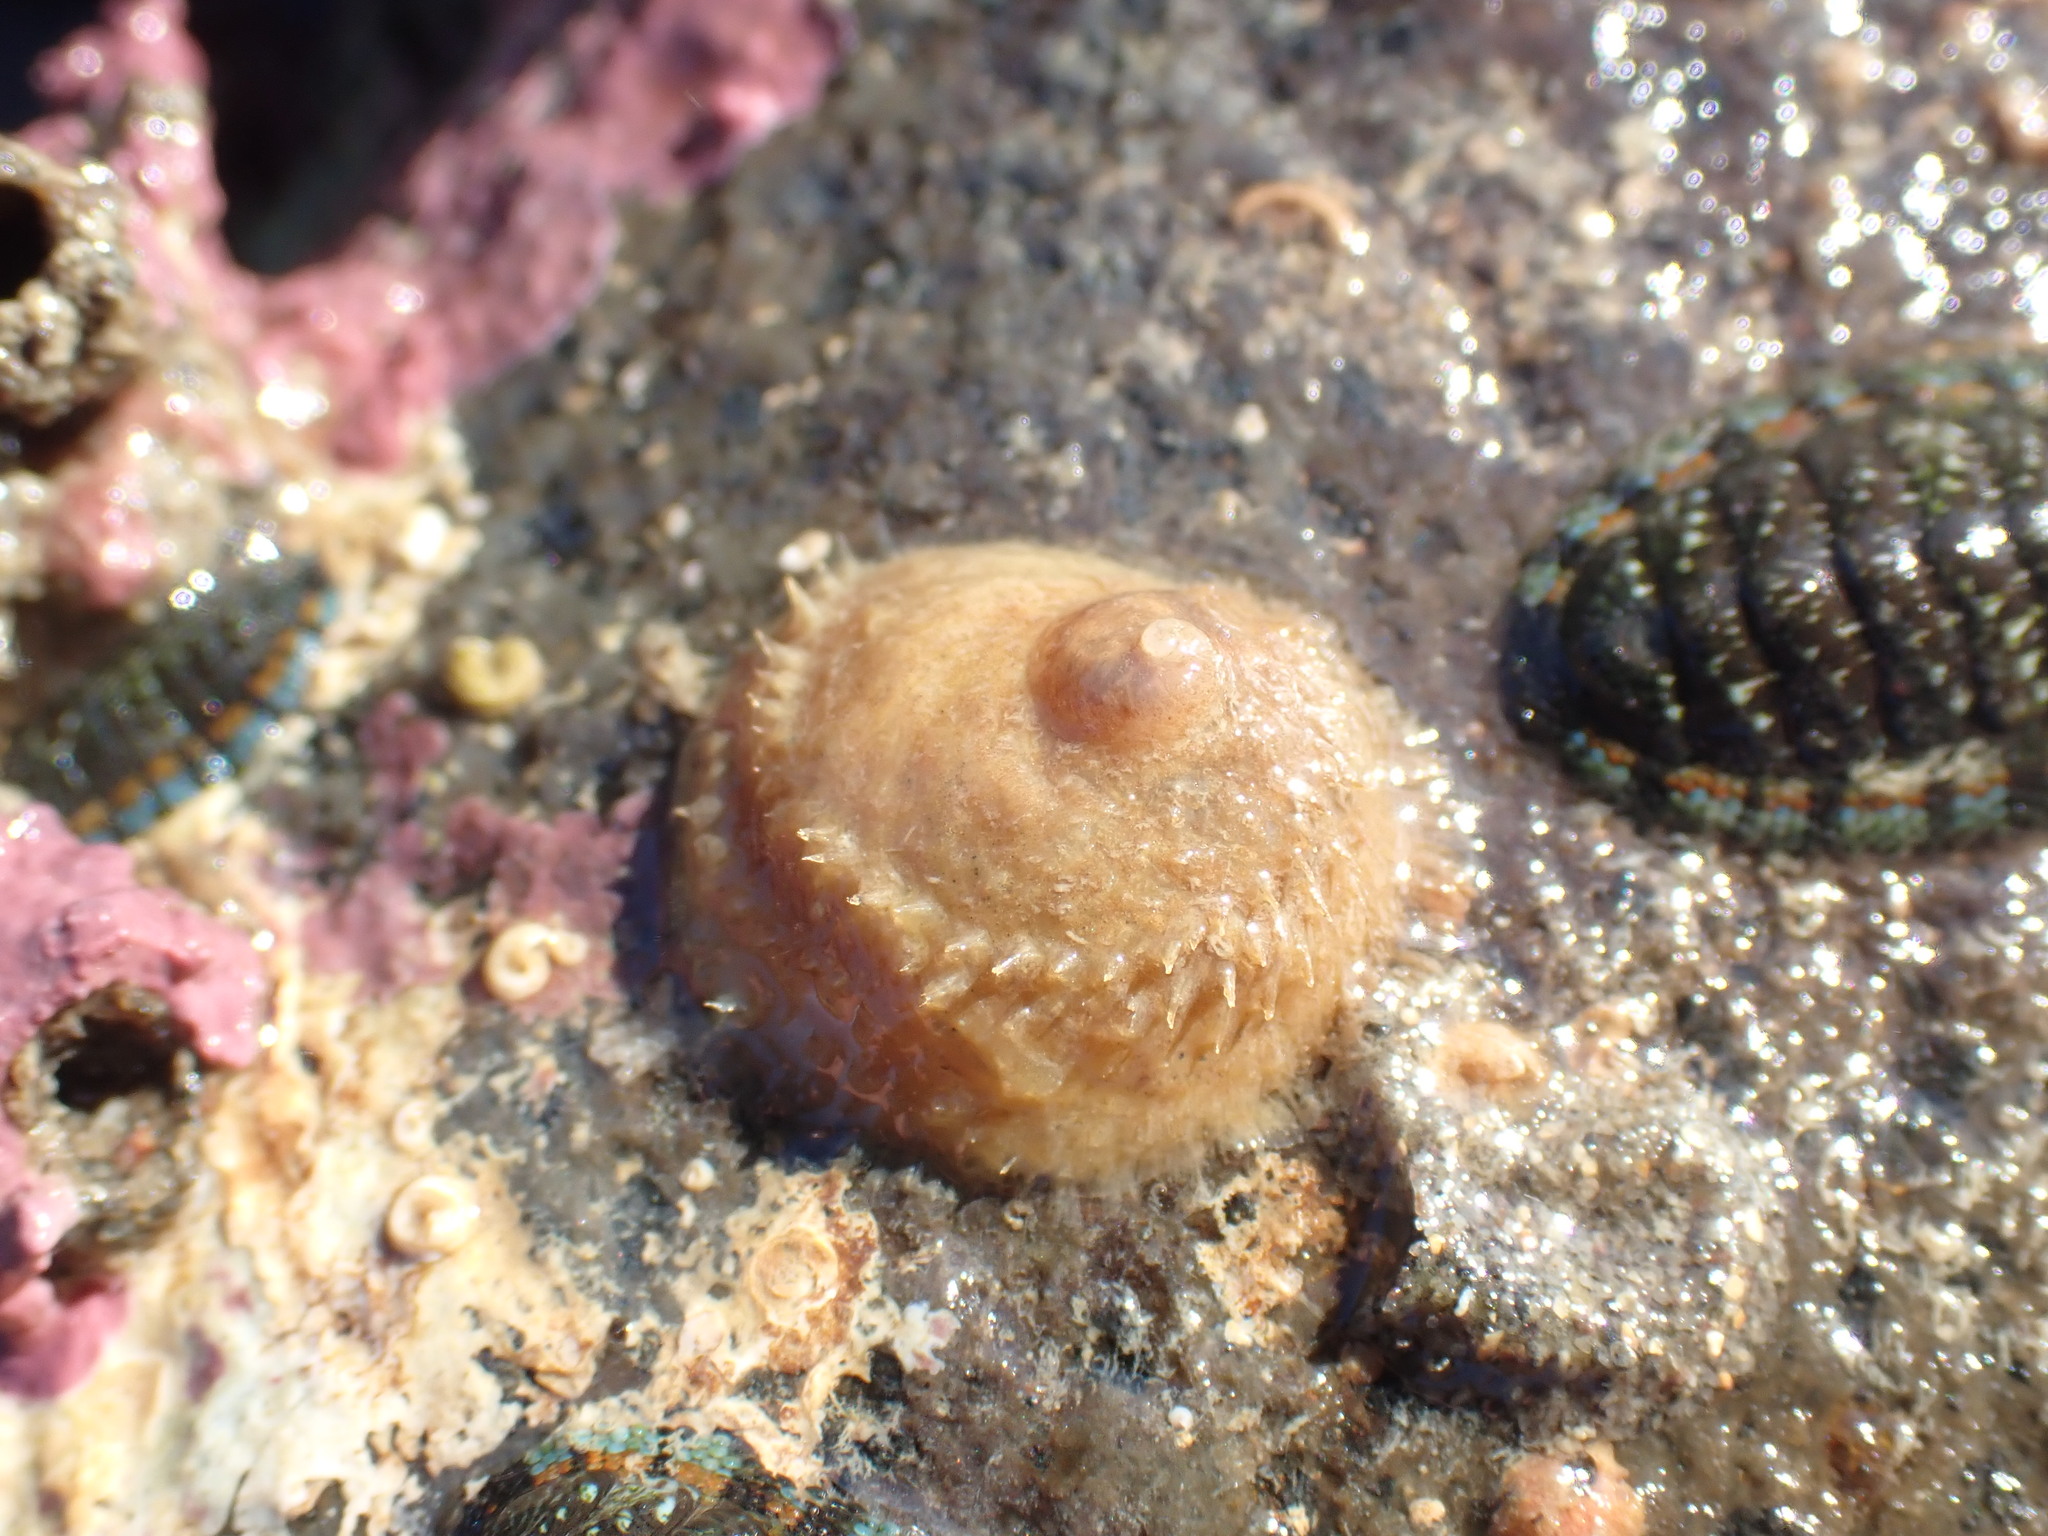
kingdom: Animalia
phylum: Mollusca
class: Gastropoda
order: Littorinimorpha
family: Calyptraeidae
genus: Sigapatella
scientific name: Sigapatella novaezelandiae
